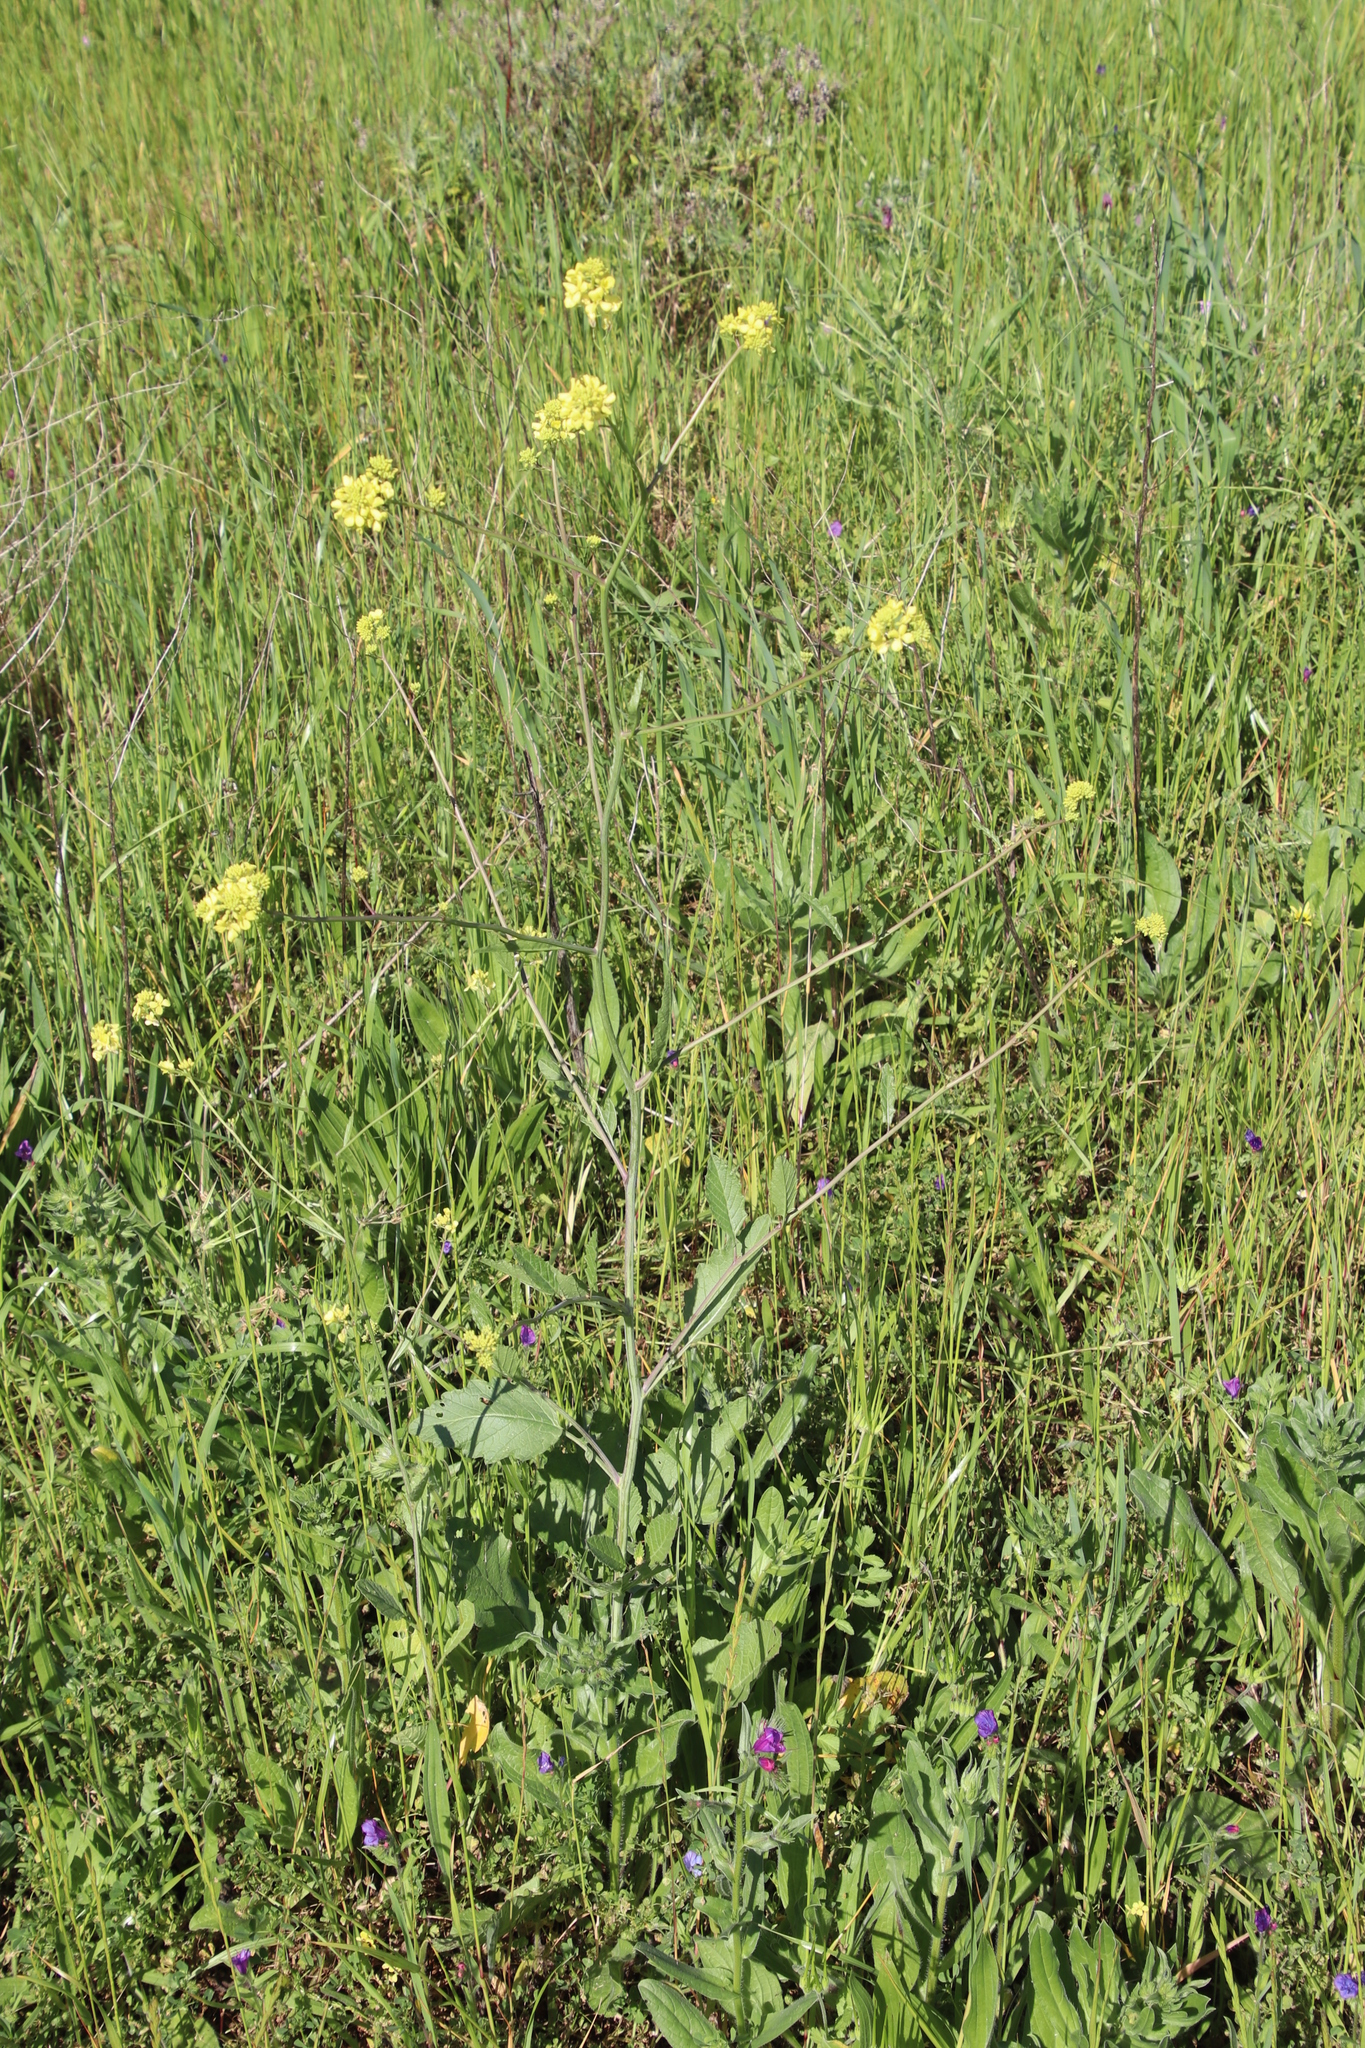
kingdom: Plantae
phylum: Tracheophyta
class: Magnoliopsida
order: Brassicales
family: Brassicaceae
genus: Rapistrum
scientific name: Rapistrum rugosum
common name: Annual bastardcabbage
